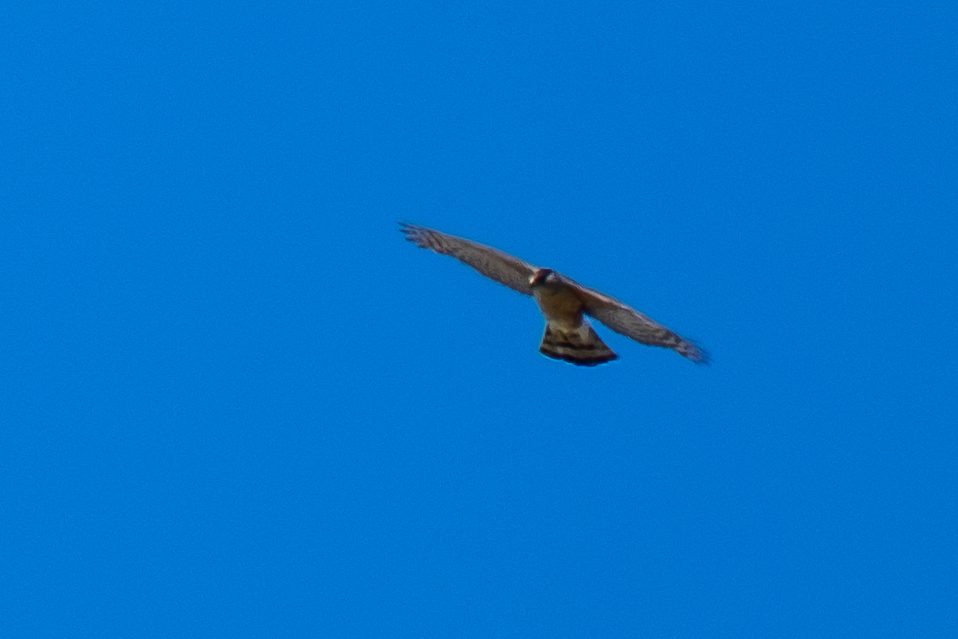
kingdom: Animalia
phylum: Chordata
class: Aves
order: Accipitriformes
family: Accipitridae
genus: Accipiter
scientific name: Accipiter cooperii
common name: Cooper's hawk
